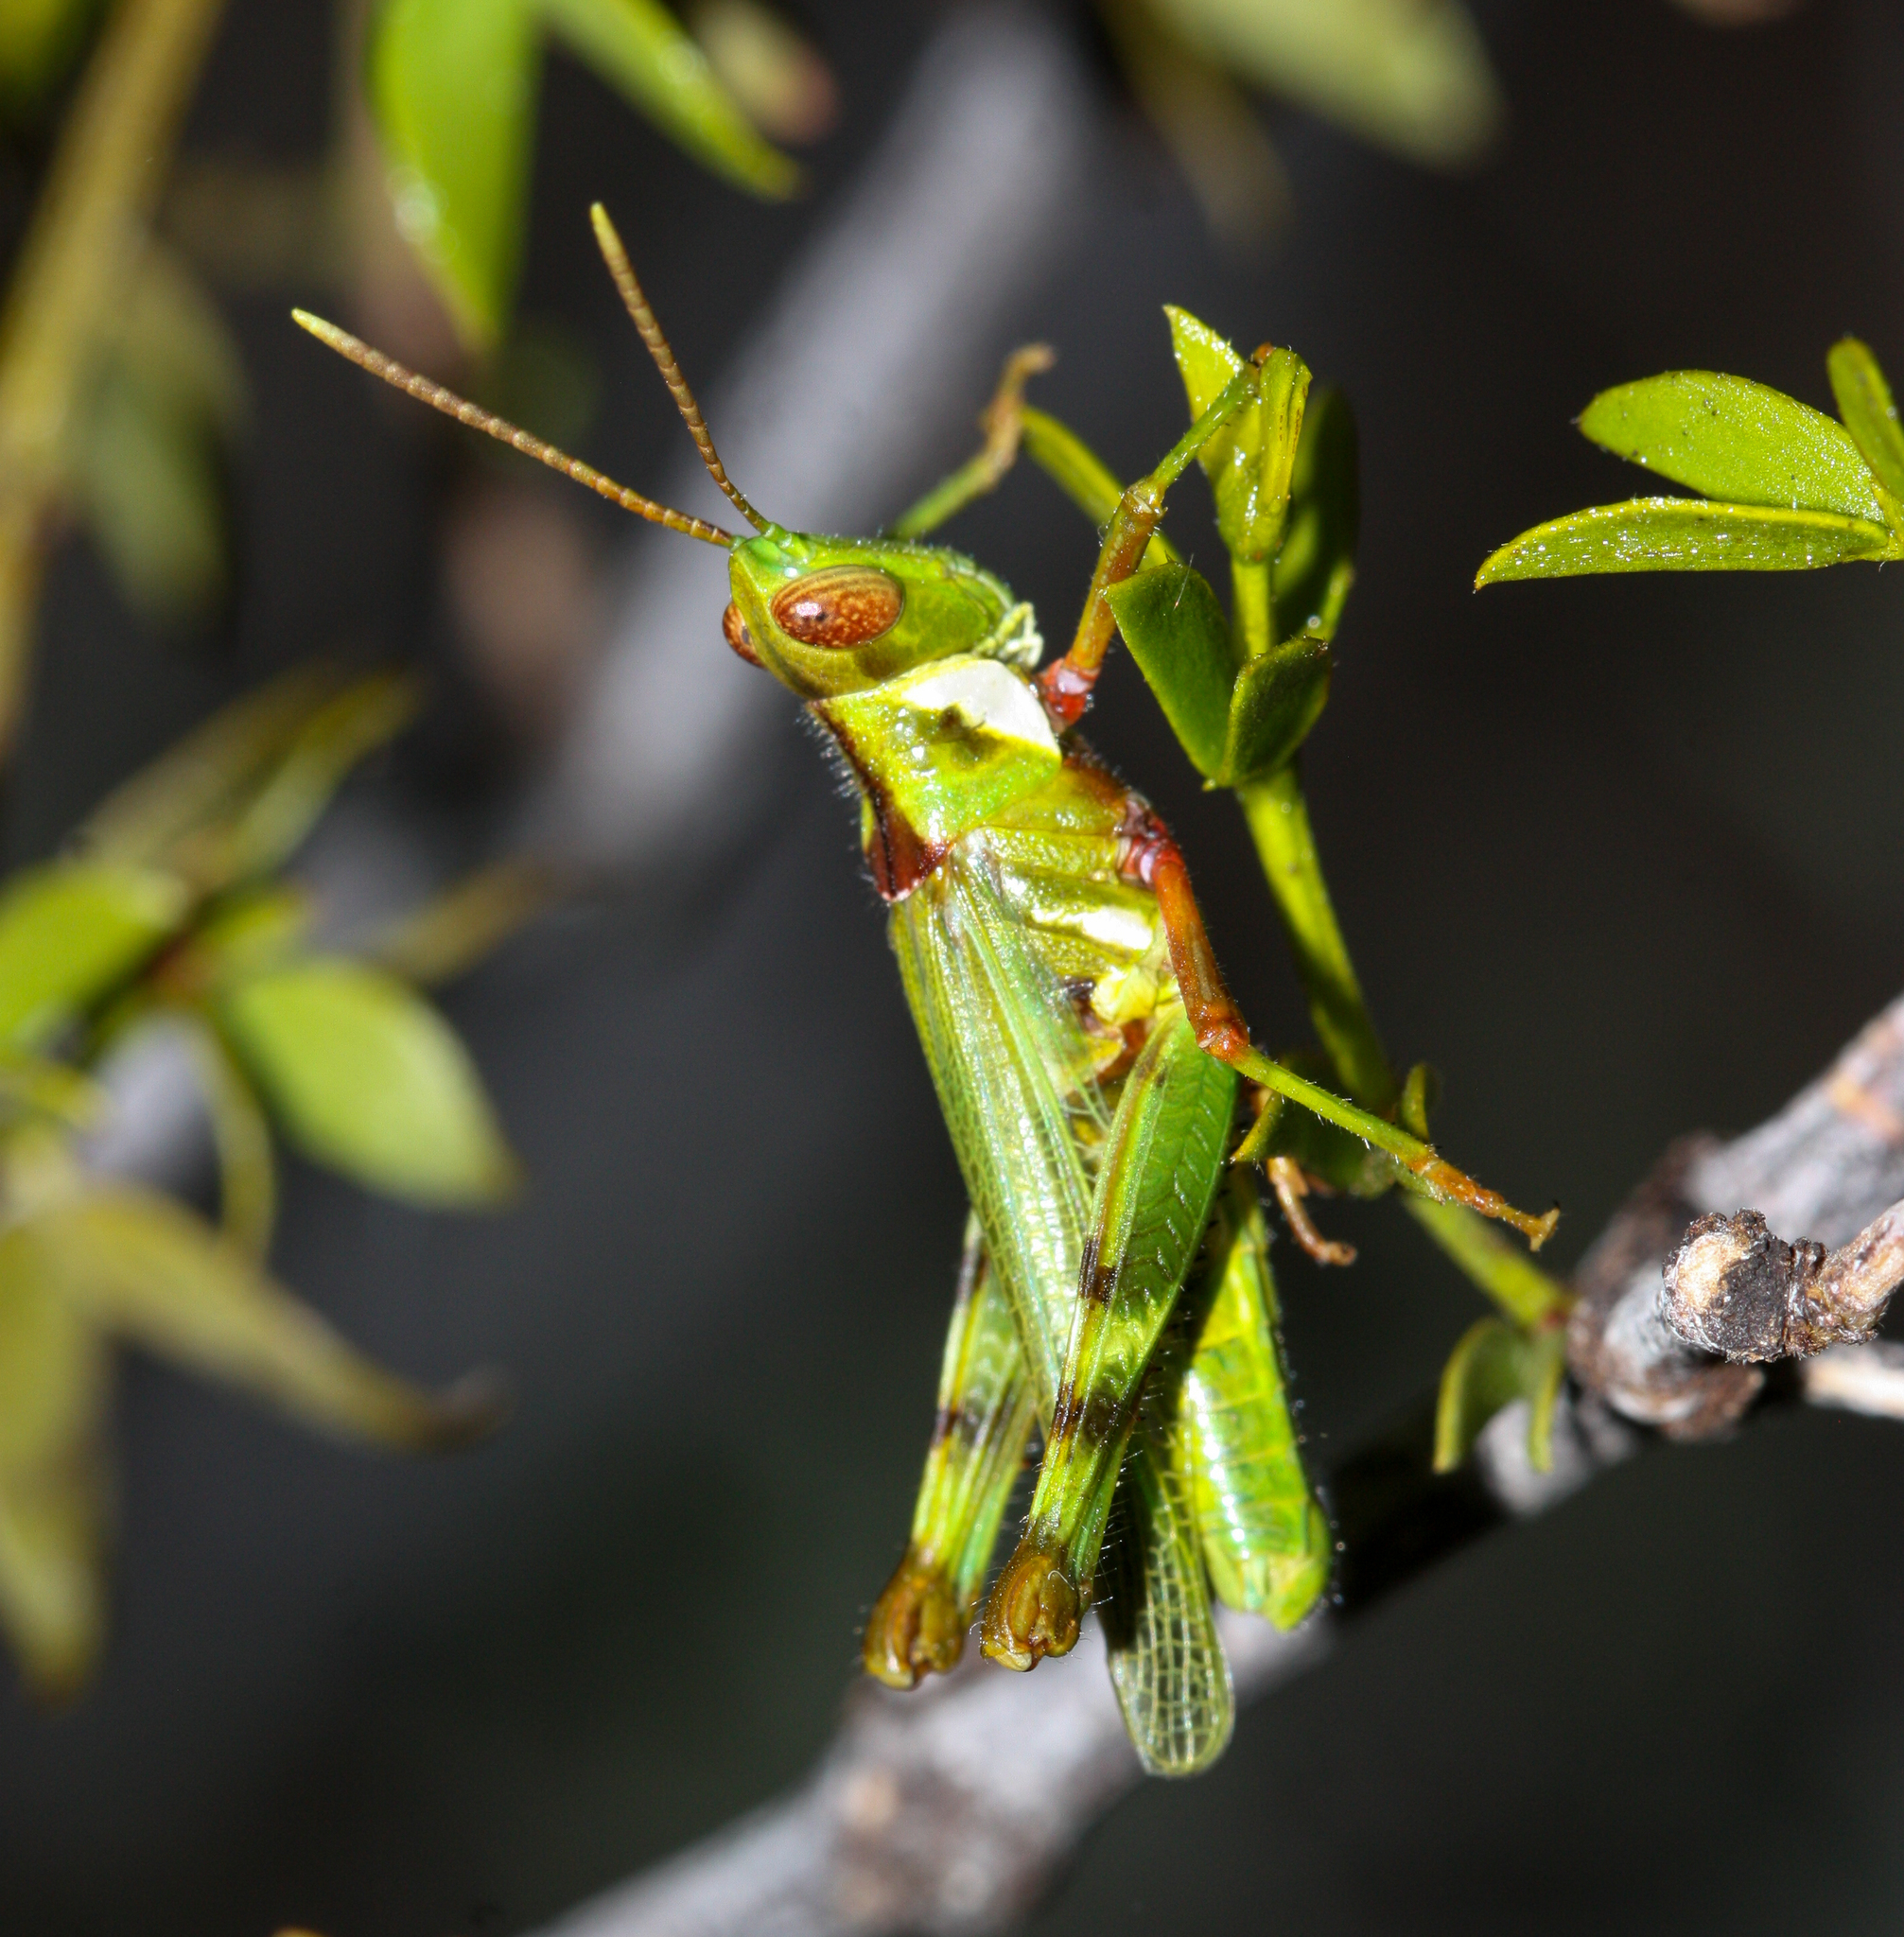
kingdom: Animalia
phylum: Arthropoda
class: Insecta
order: Orthoptera
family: Acrididae
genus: Bootettix
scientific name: Bootettix argentatus
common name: Creosote bush grasshopper
